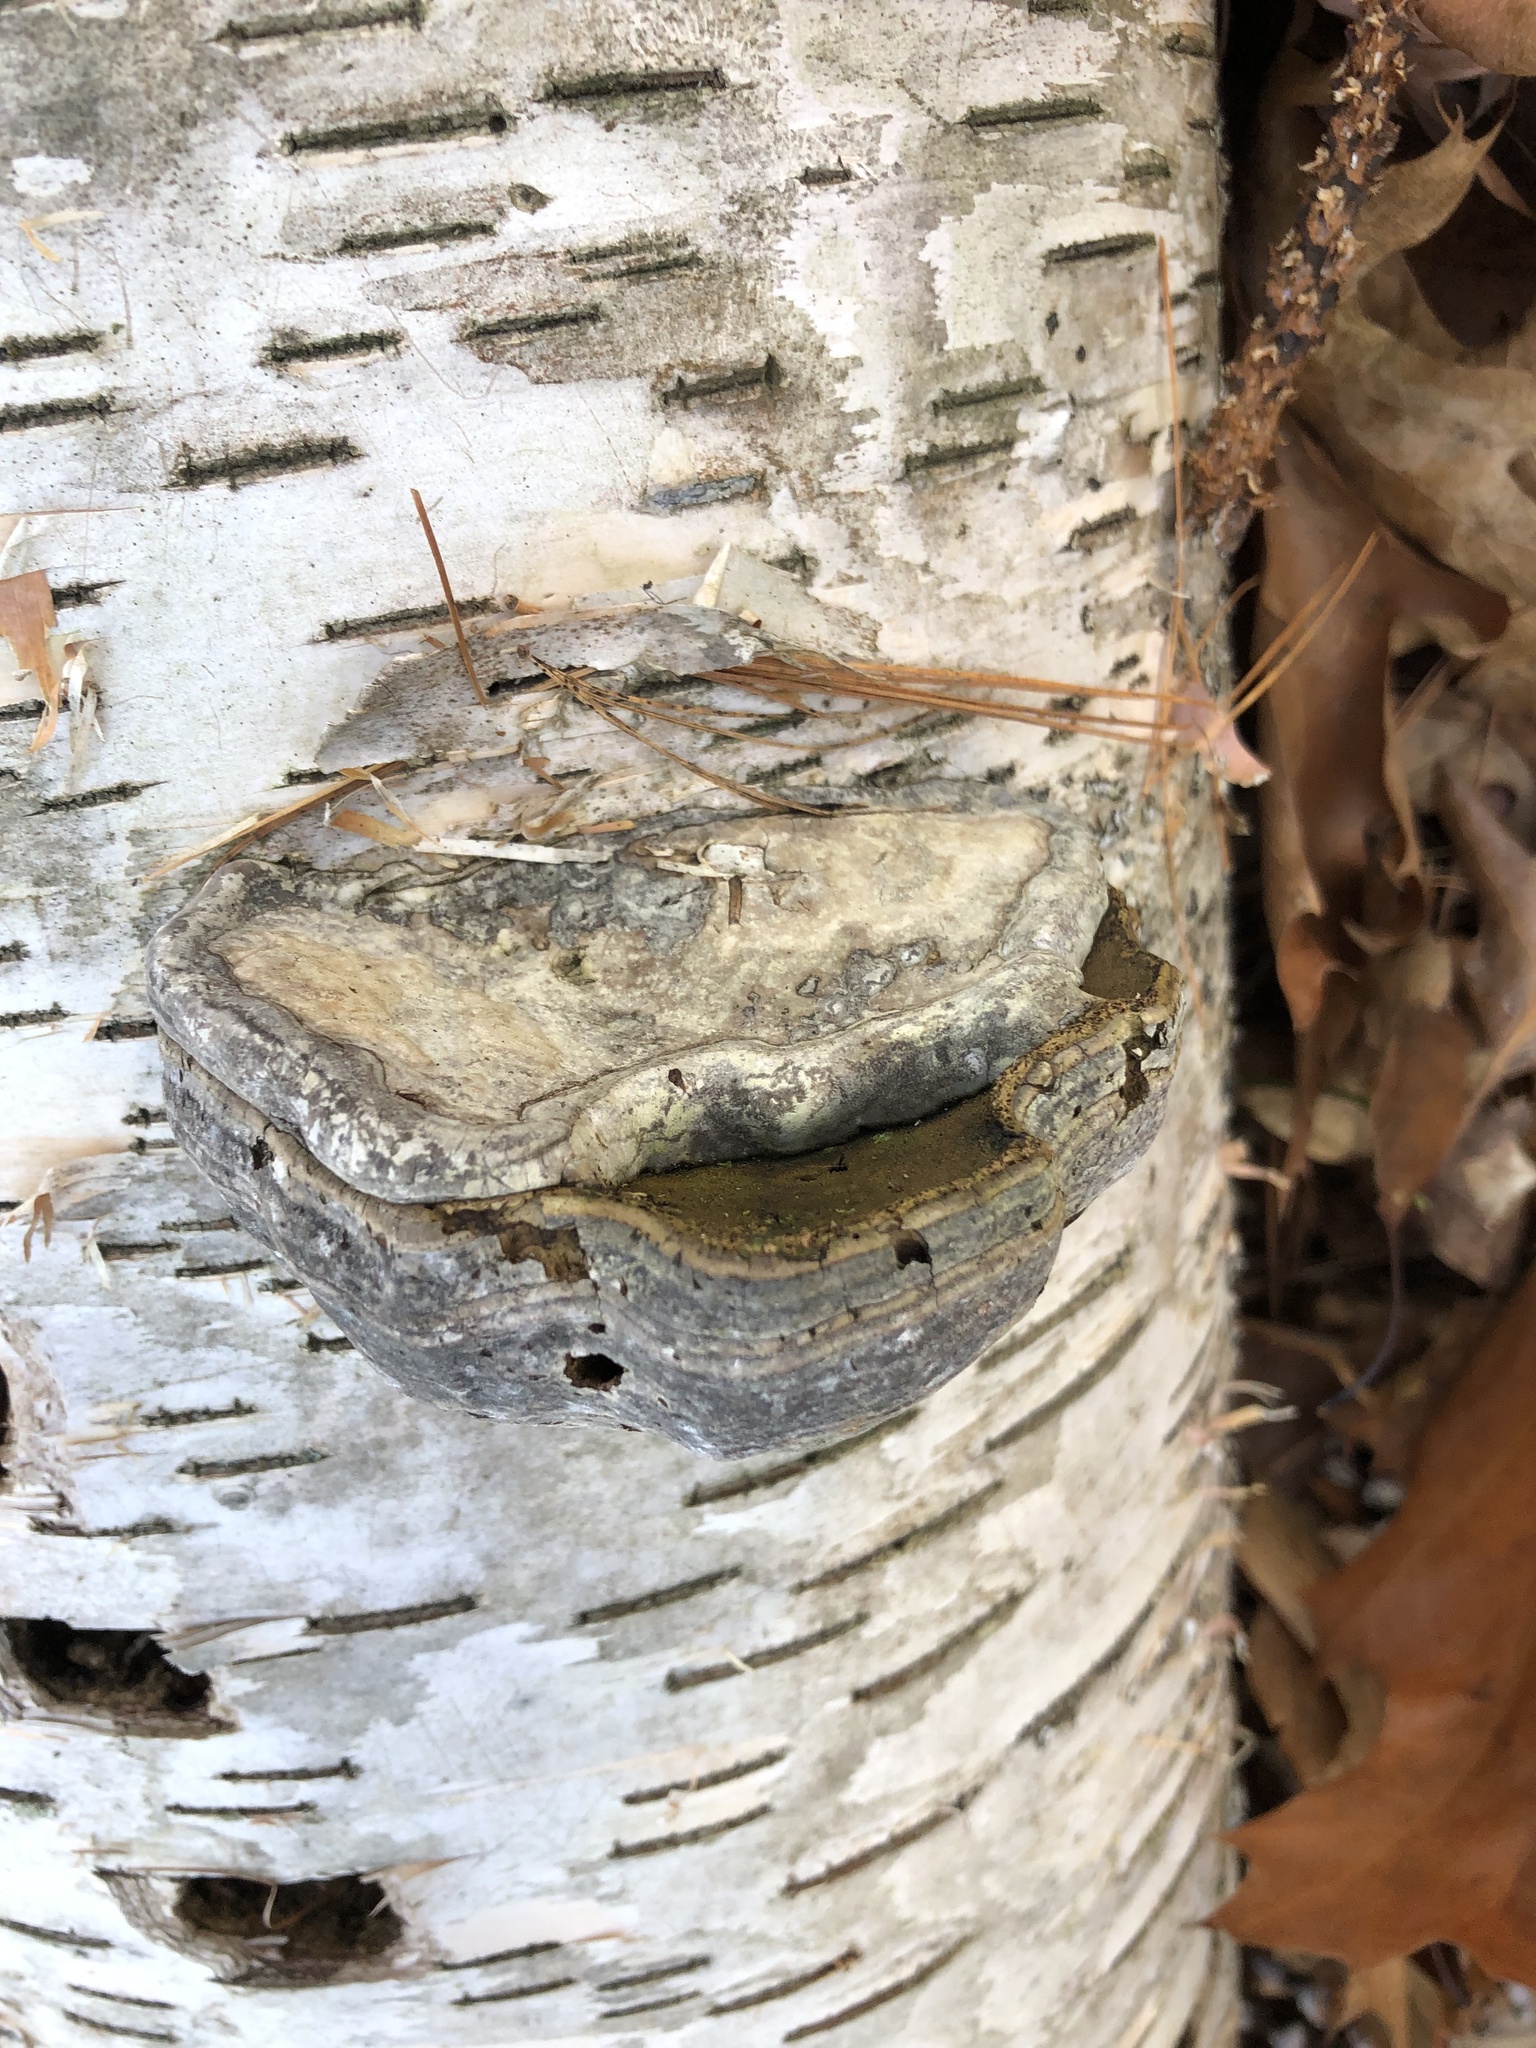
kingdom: Fungi
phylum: Basidiomycota
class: Agaricomycetes
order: Polyporales
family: Polyporaceae
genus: Fomes
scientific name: Fomes fomentarius
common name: Hoof fungus
